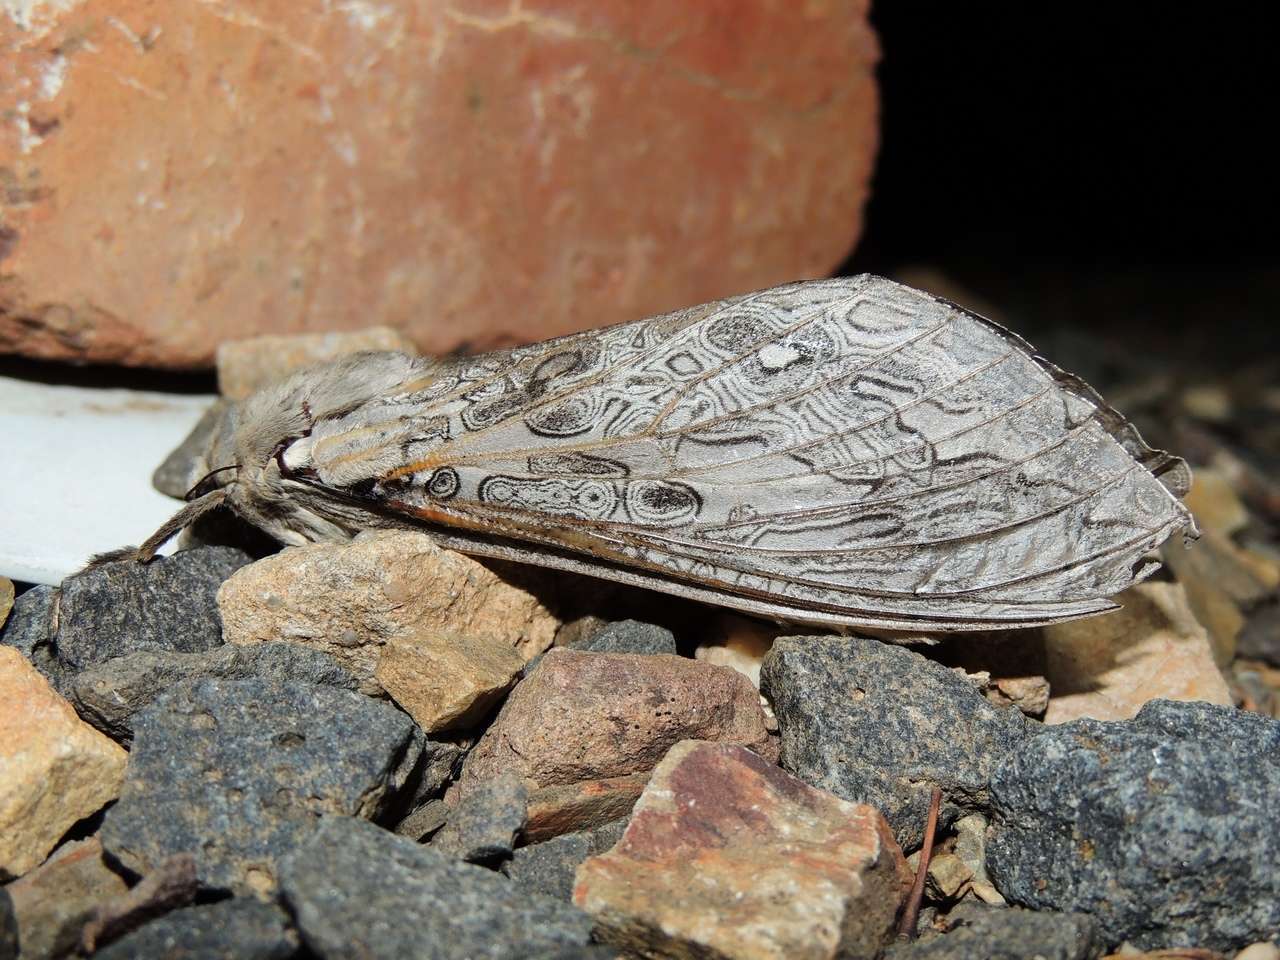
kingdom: Animalia
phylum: Arthropoda
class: Insecta
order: Lepidoptera
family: Hepialidae
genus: Abantiades
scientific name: Abantiades marcidus
